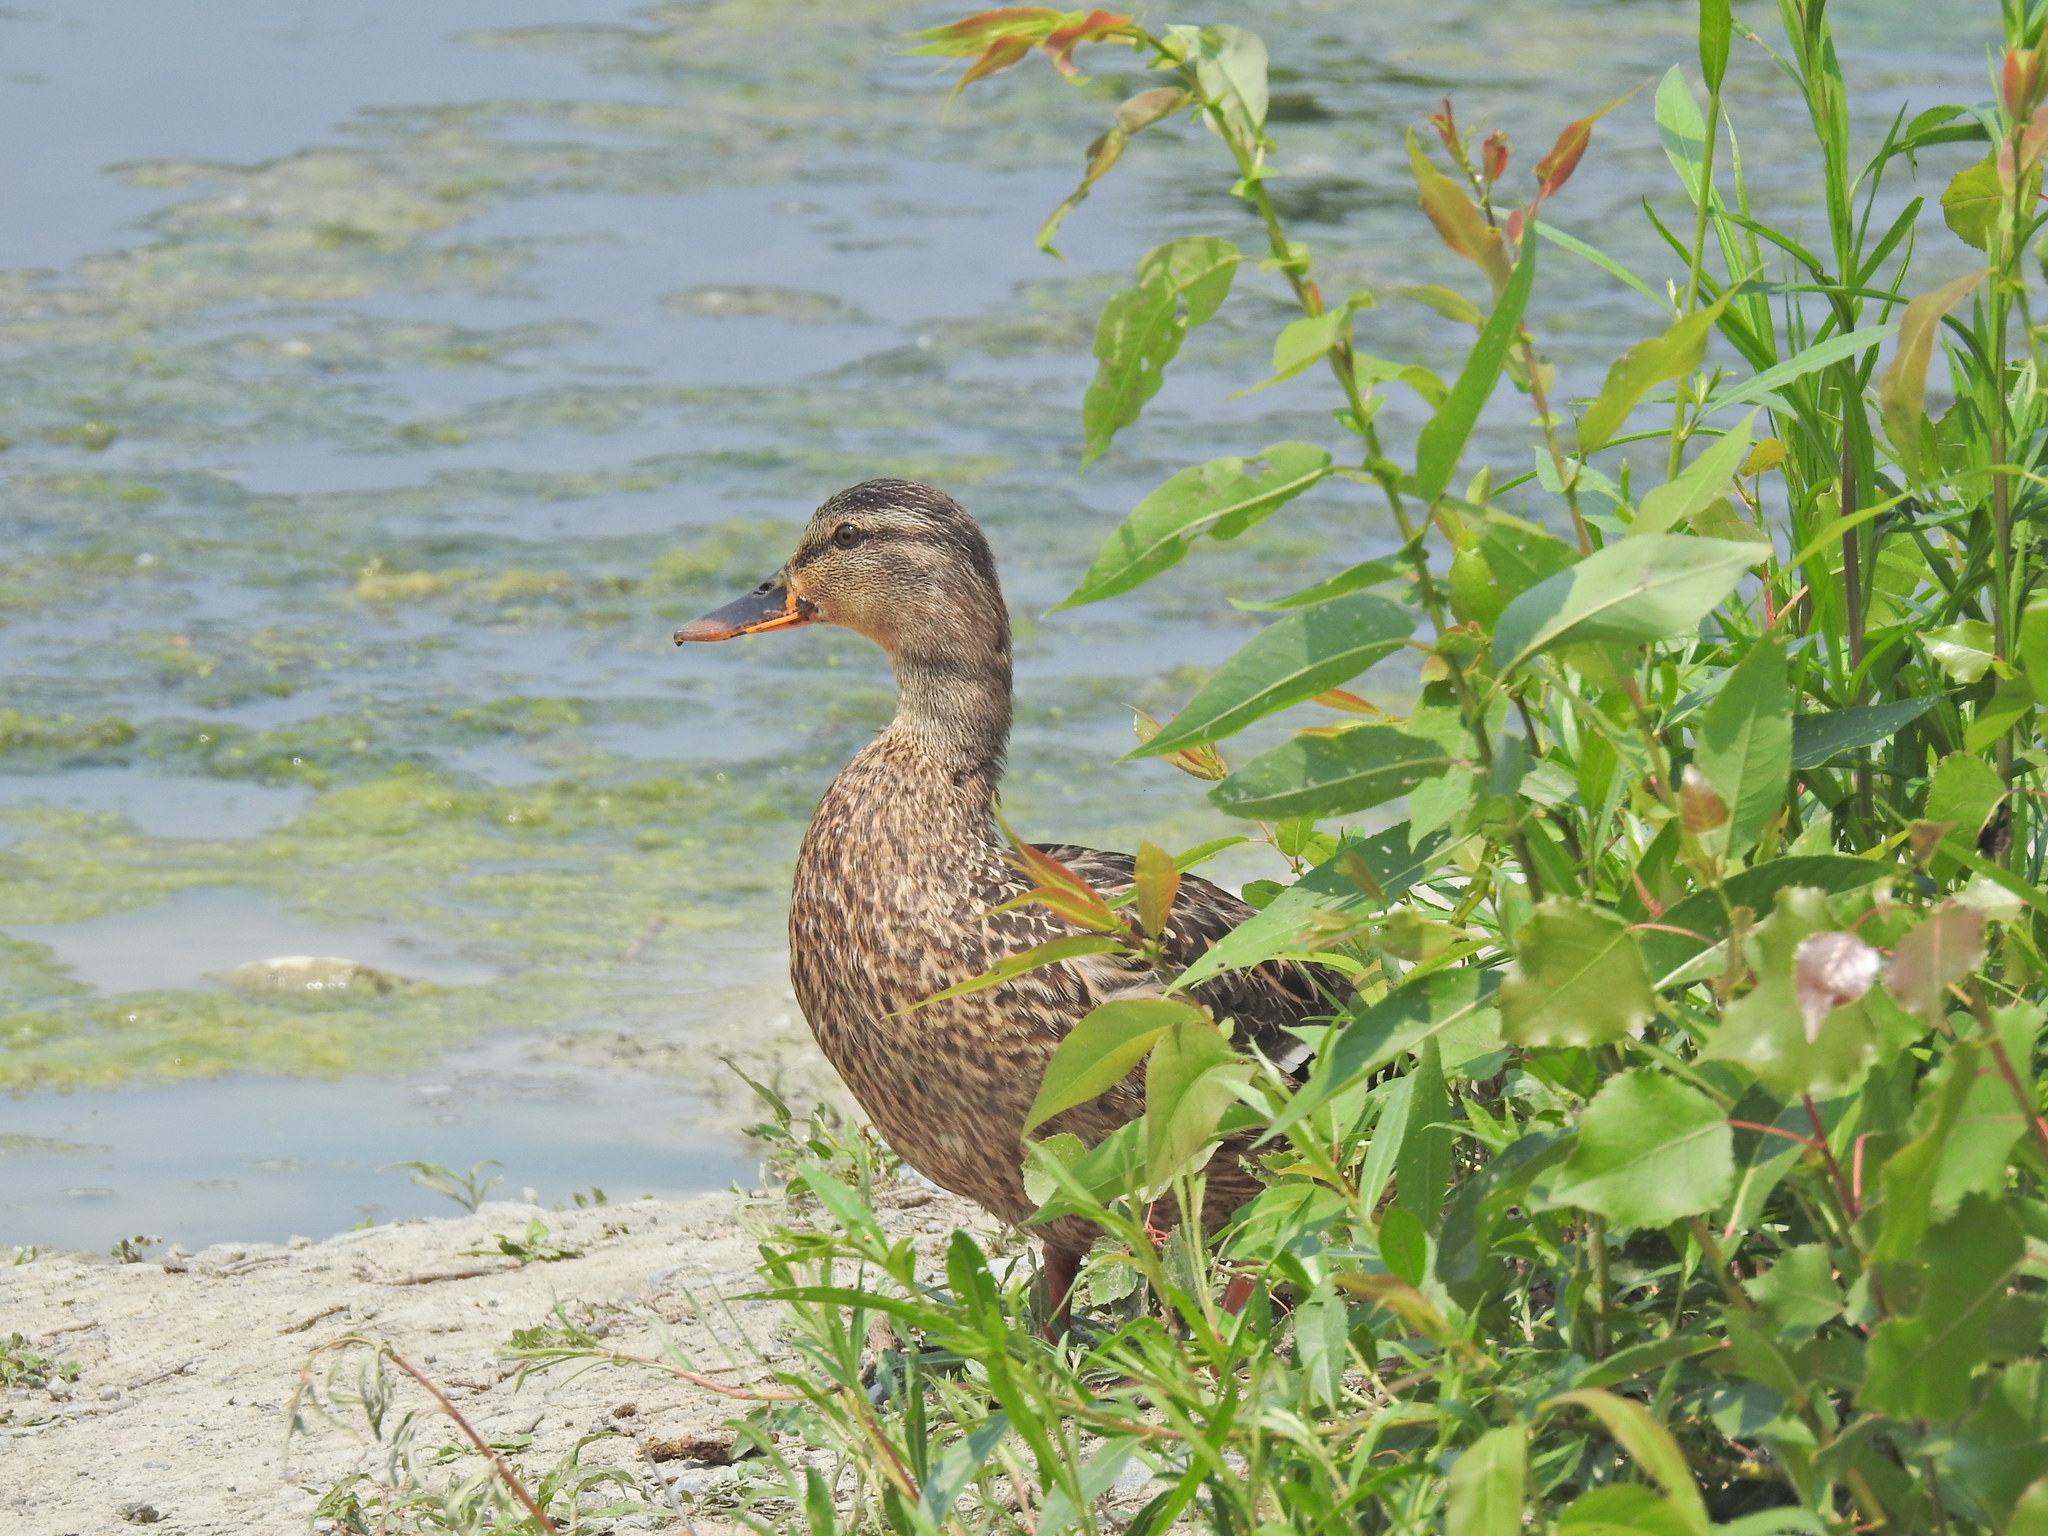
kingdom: Animalia
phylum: Chordata
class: Aves
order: Anseriformes
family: Anatidae
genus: Anas
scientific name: Anas platyrhynchos
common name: Mallard
